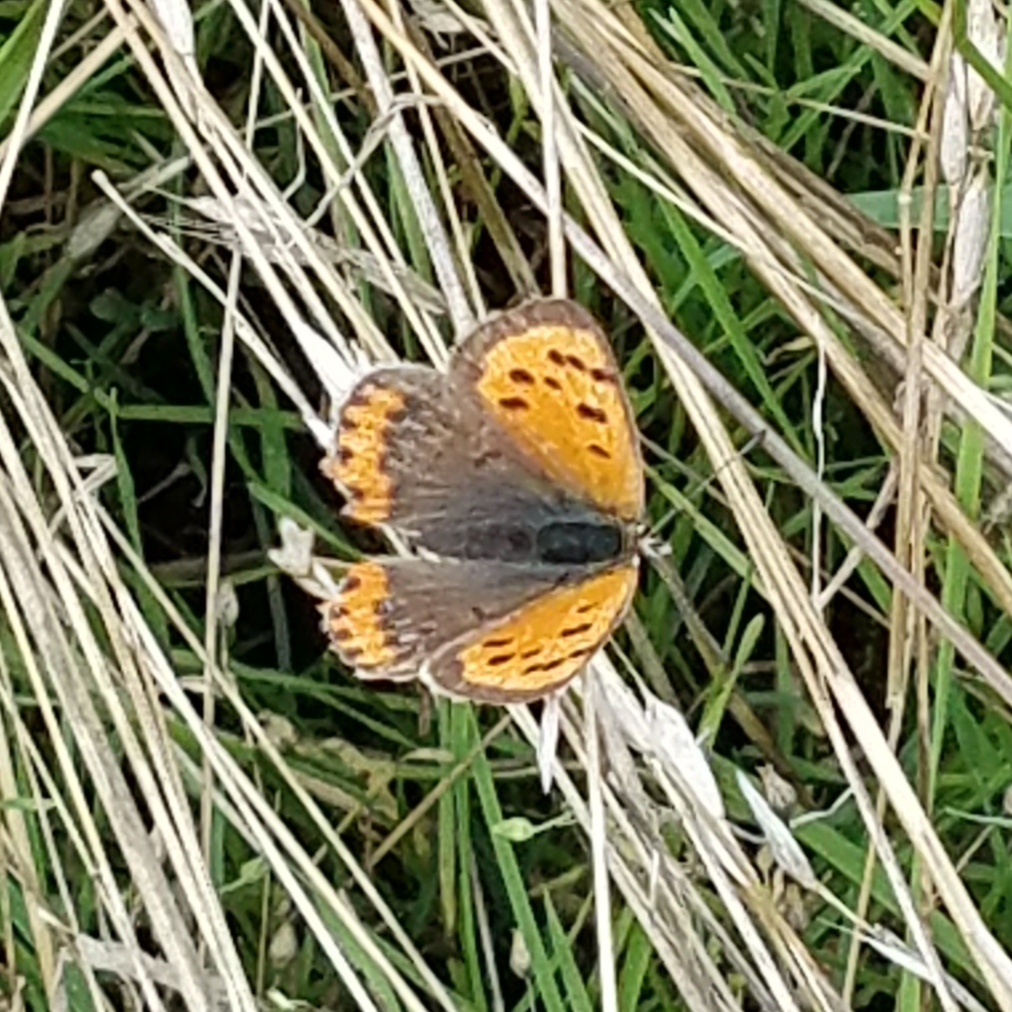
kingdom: Animalia
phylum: Arthropoda
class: Insecta
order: Lepidoptera
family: Lycaenidae
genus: Lycaena
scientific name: Lycaena phlaeas
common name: Small copper
